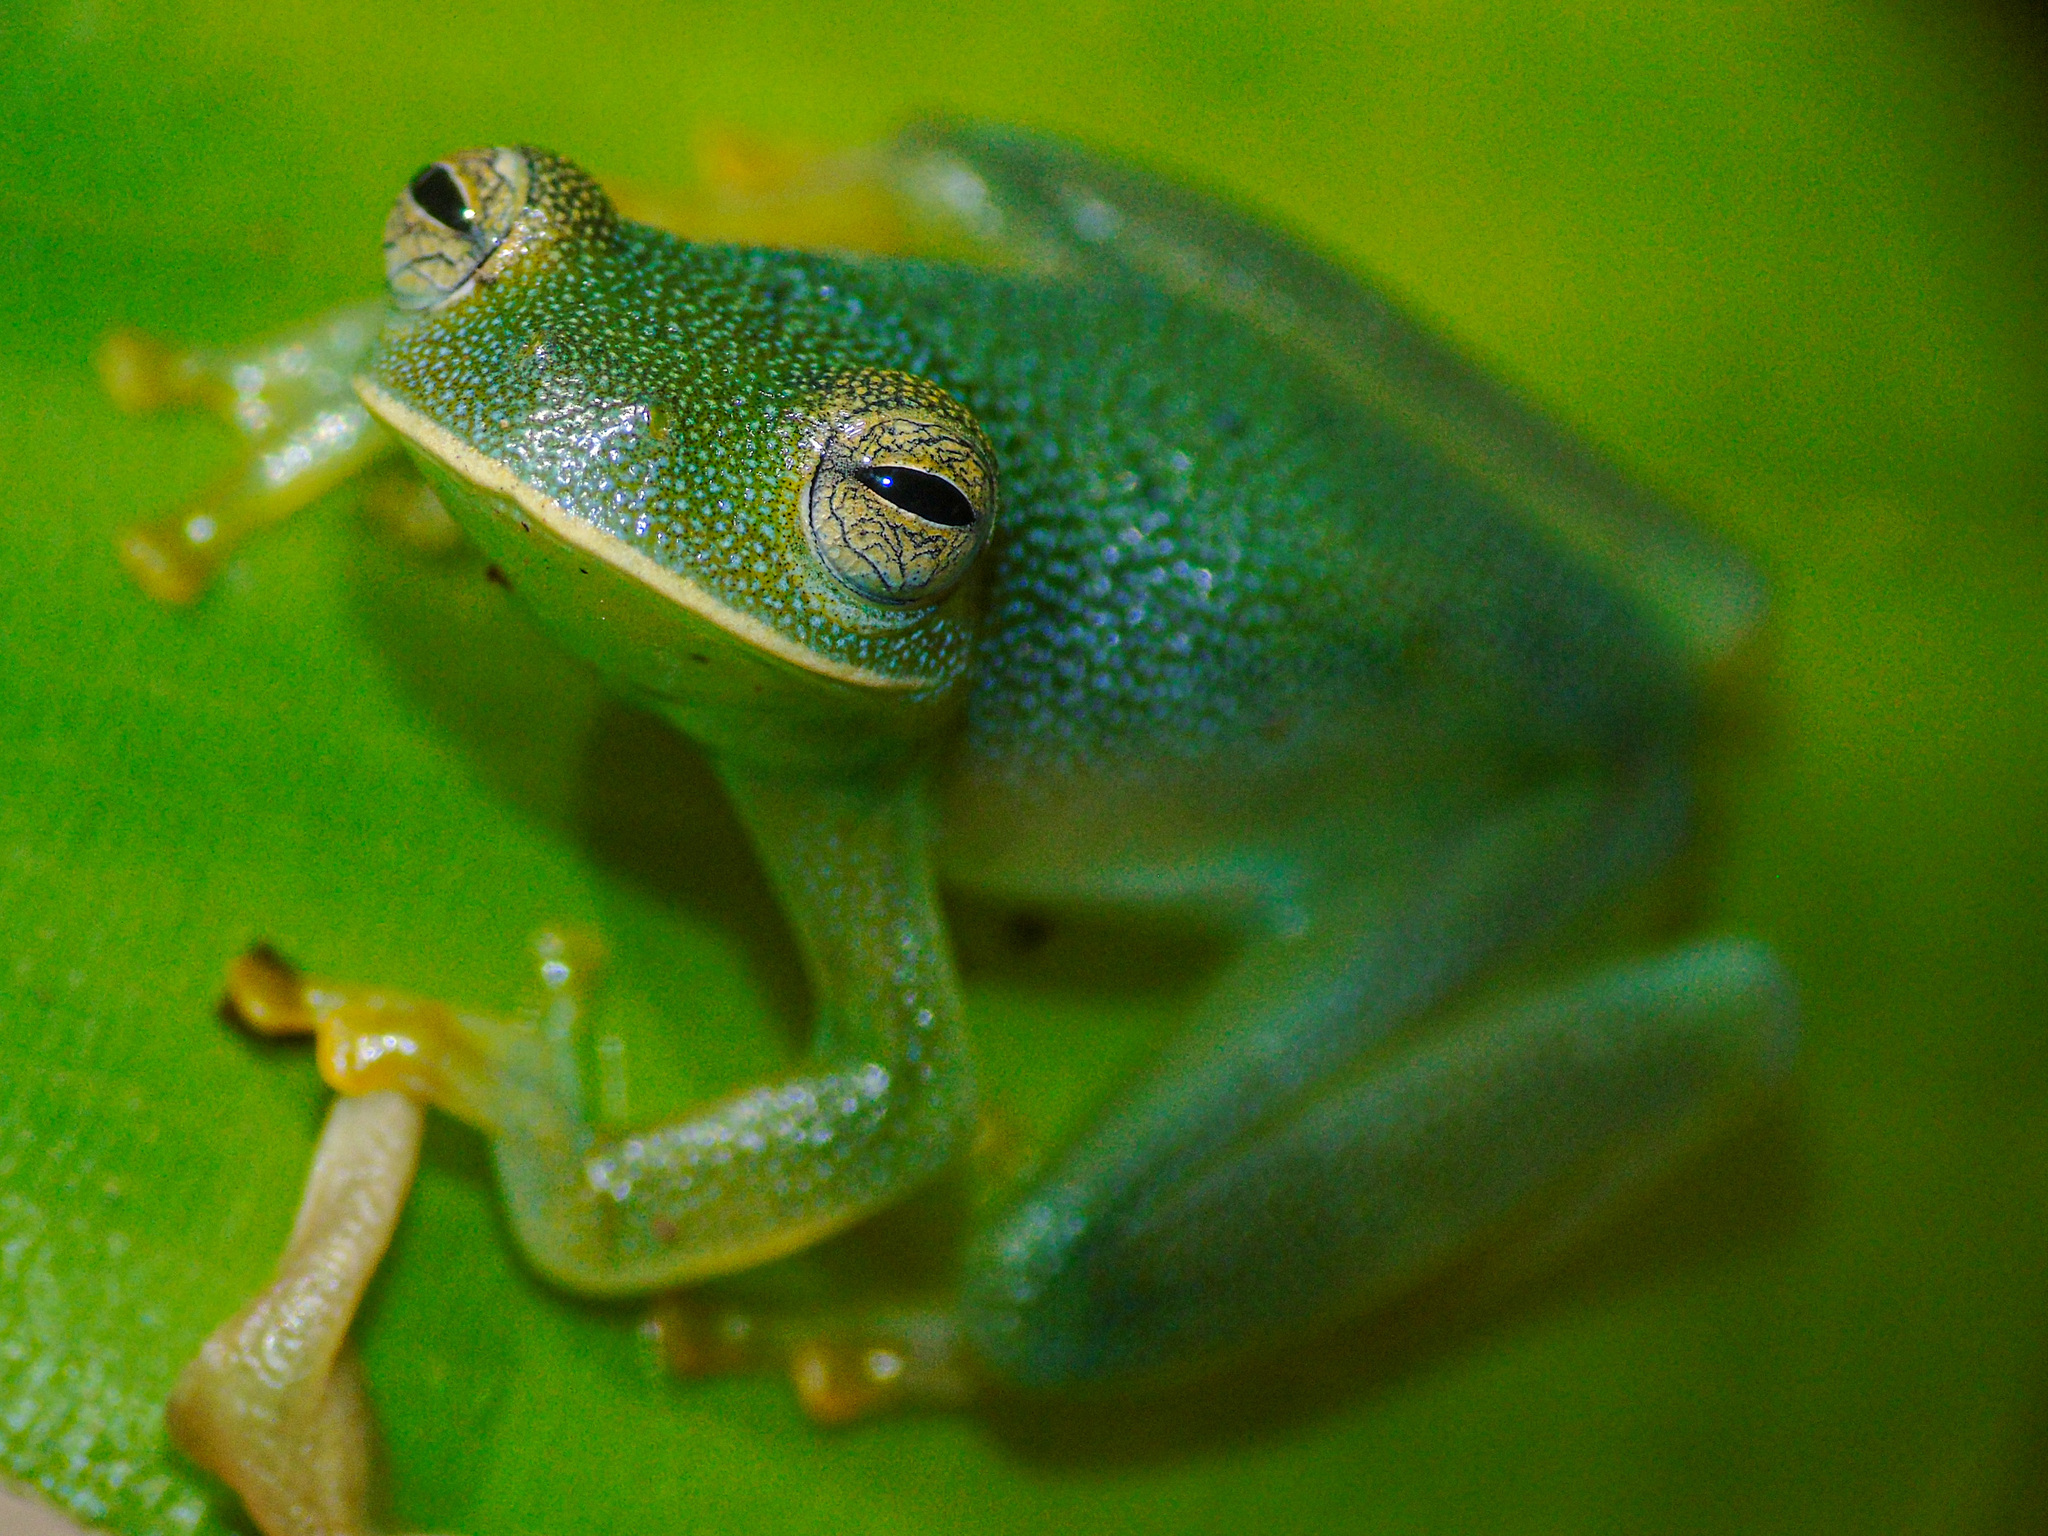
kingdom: Animalia
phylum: Chordata
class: Amphibia
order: Anura
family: Centrolenidae
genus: Cochranella
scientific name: Cochranella granulosa
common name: Grainy cochran frog
